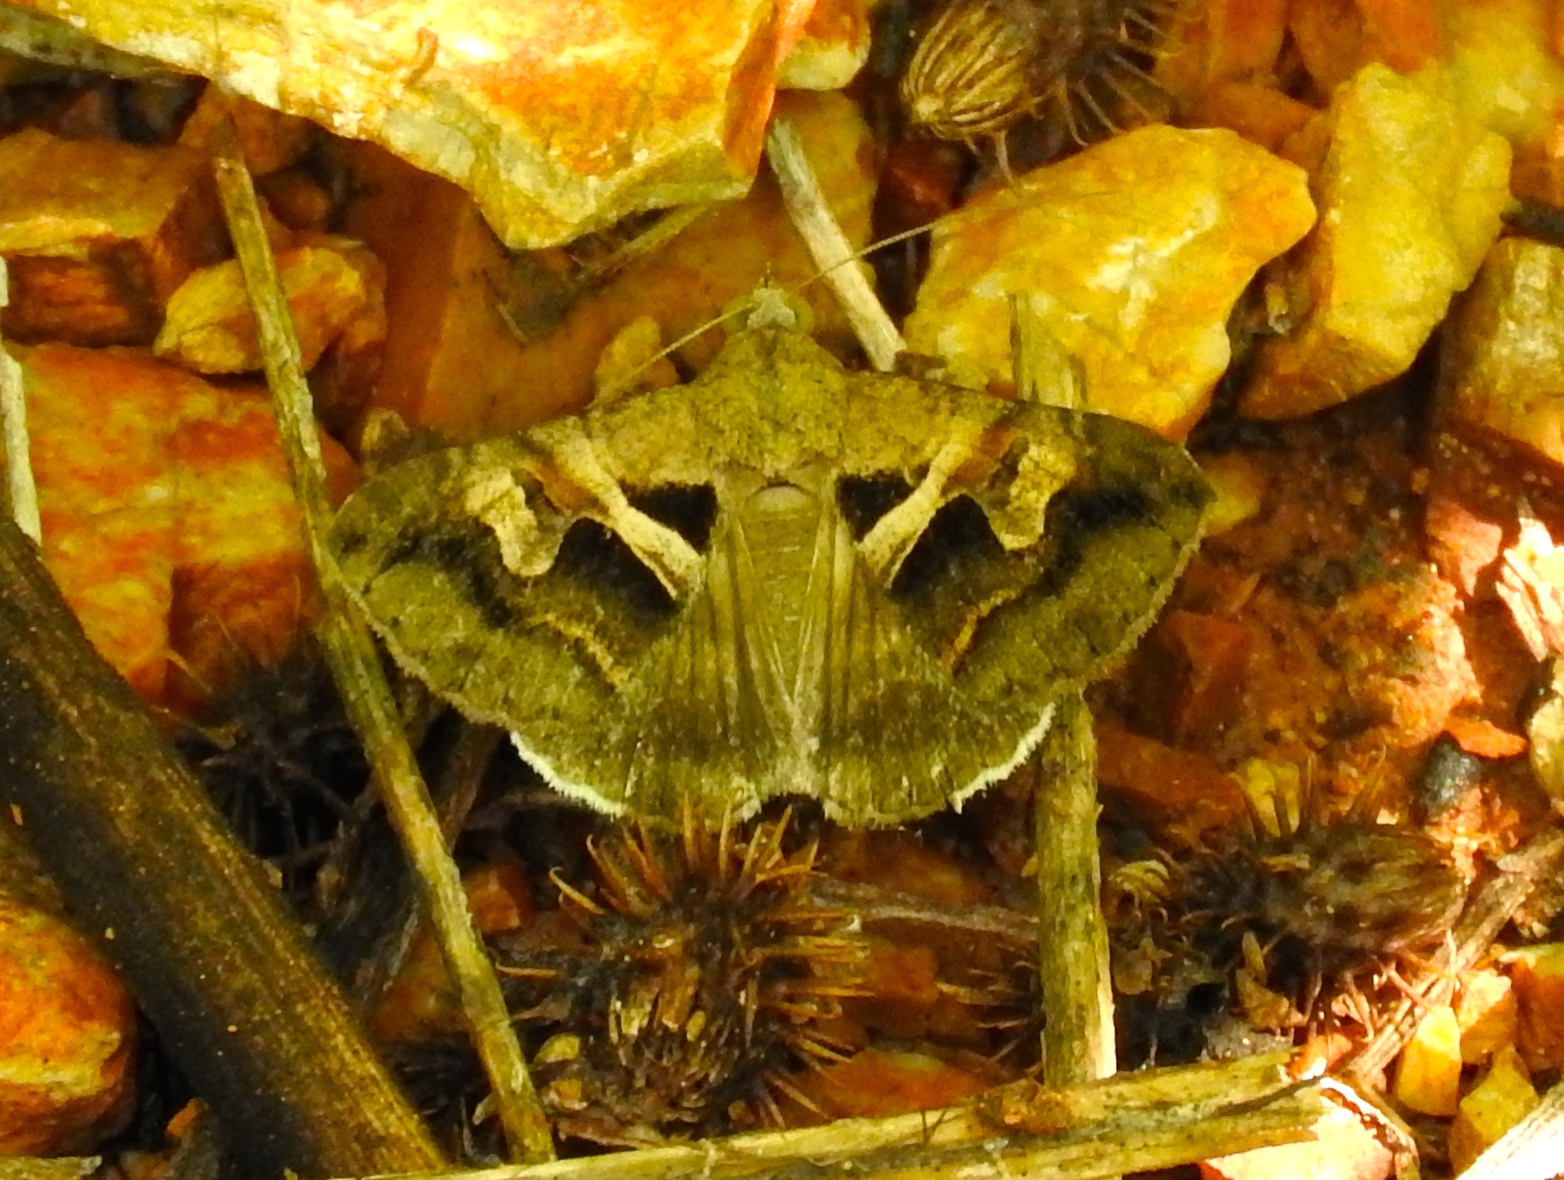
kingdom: Animalia
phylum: Arthropoda
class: Insecta
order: Lepidoptera
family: Erebidae
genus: Melipotis
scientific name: Melipotis cellaris
